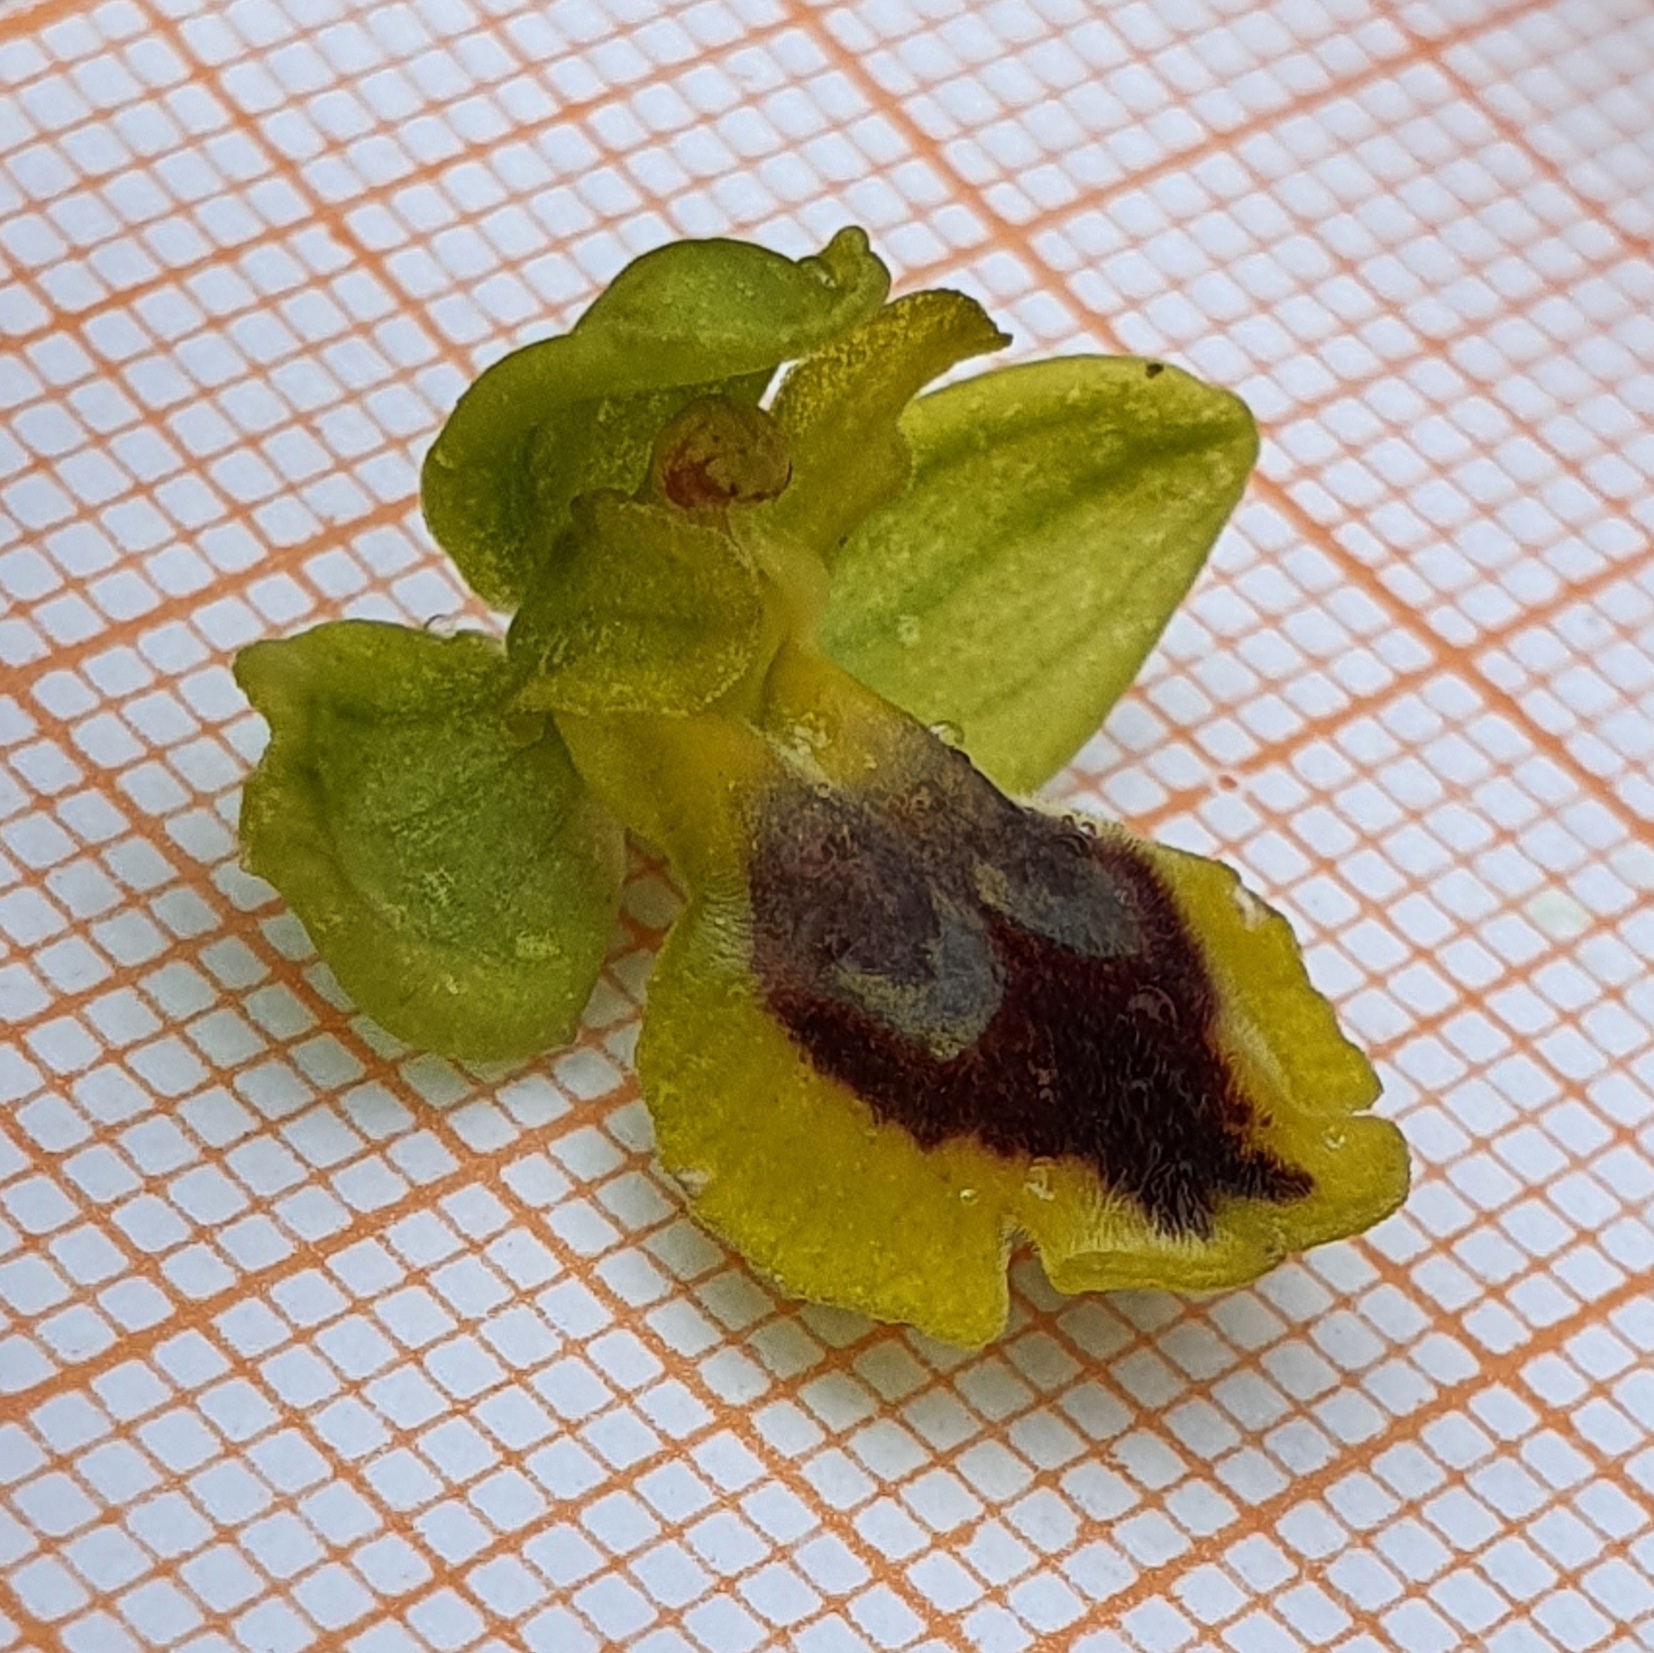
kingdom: Plantae
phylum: Tracheophyta
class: Liliopsida
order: Asparagales
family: Orchidaceae
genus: Ophrys
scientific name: Ophrys battandieri
